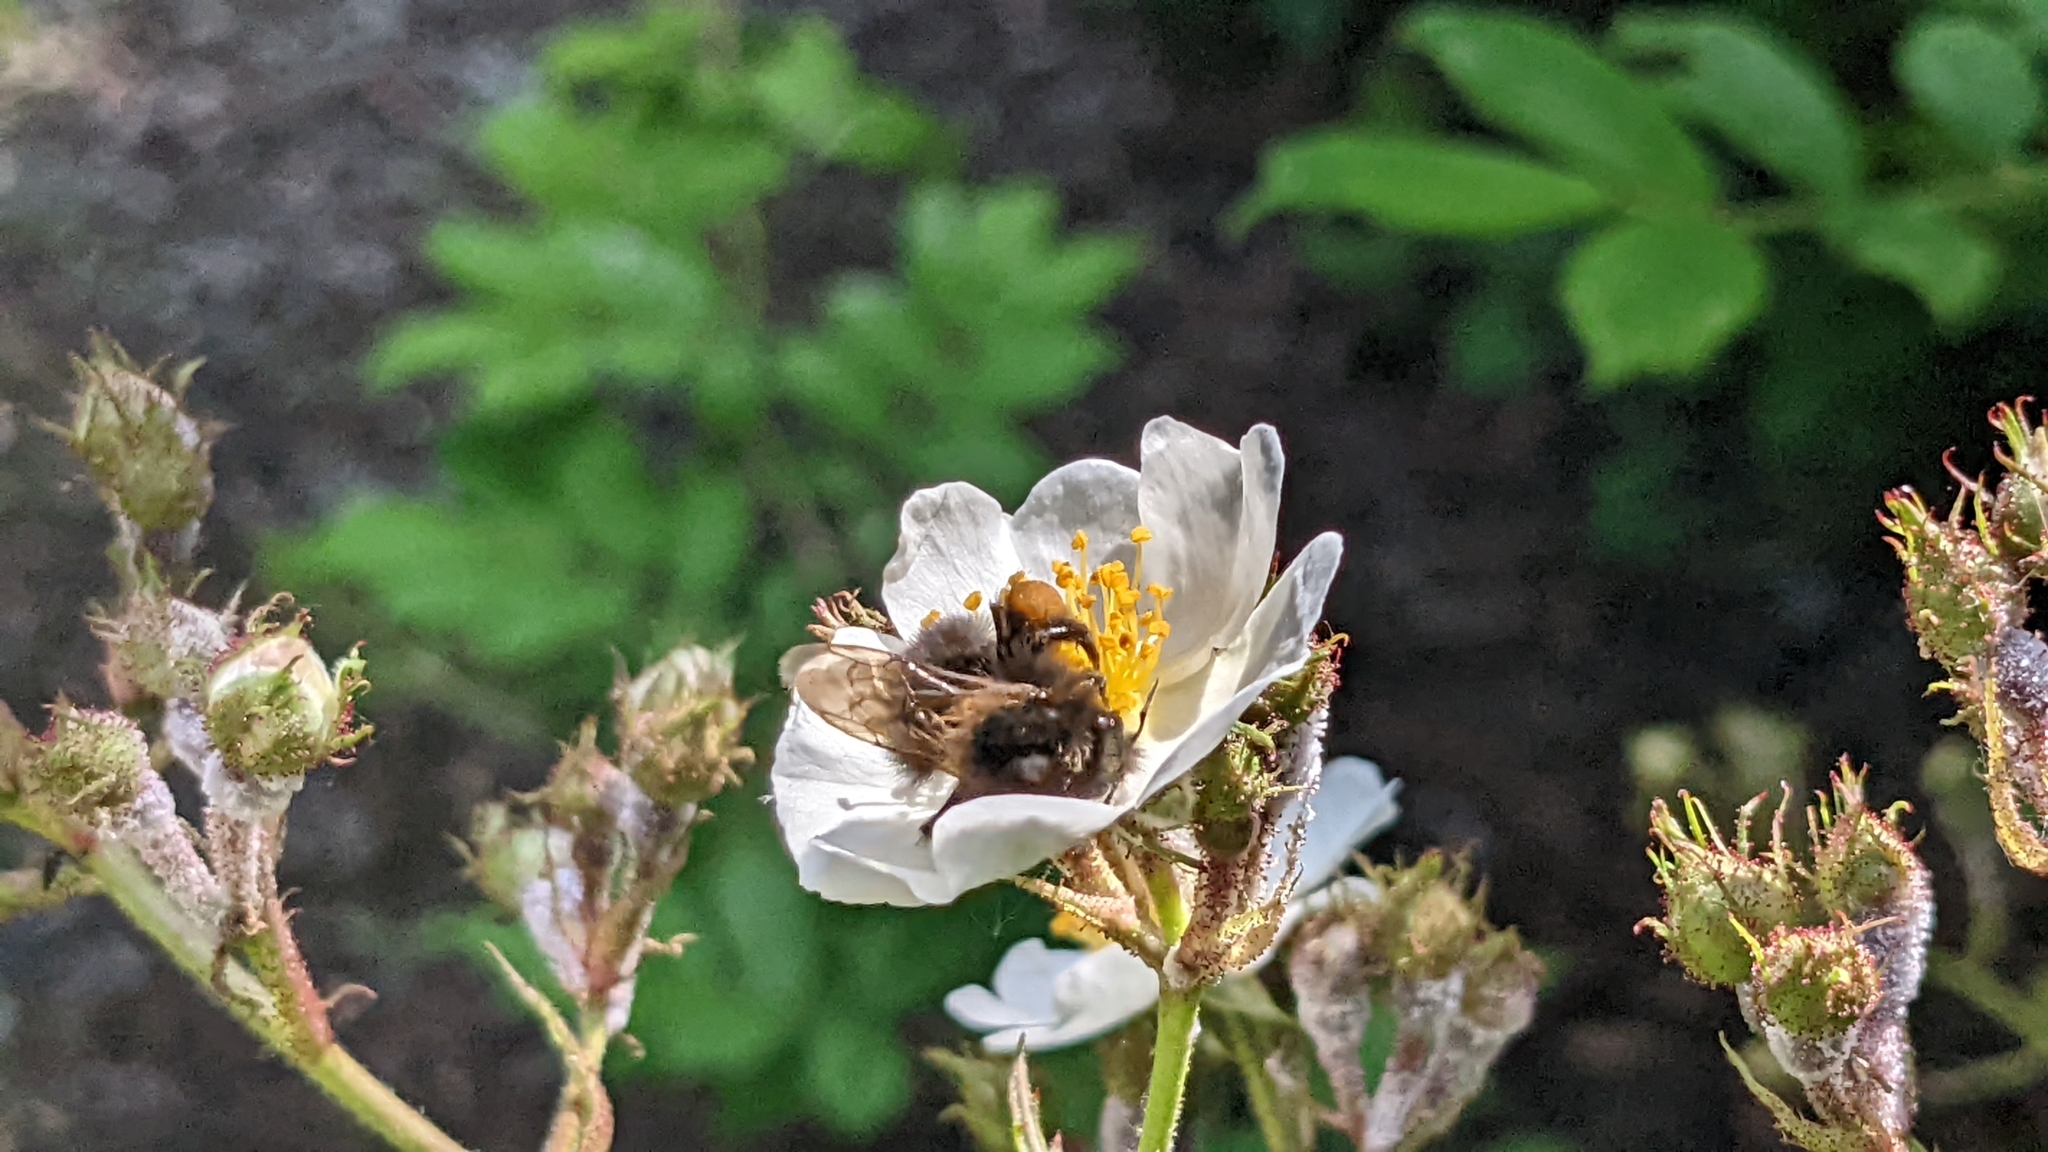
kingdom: Animalia
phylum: Arthropoda
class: Insecta
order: Hymenoptera
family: Apidae
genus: Bombus
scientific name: Bombus hypnorum
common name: New garden bumblebee
